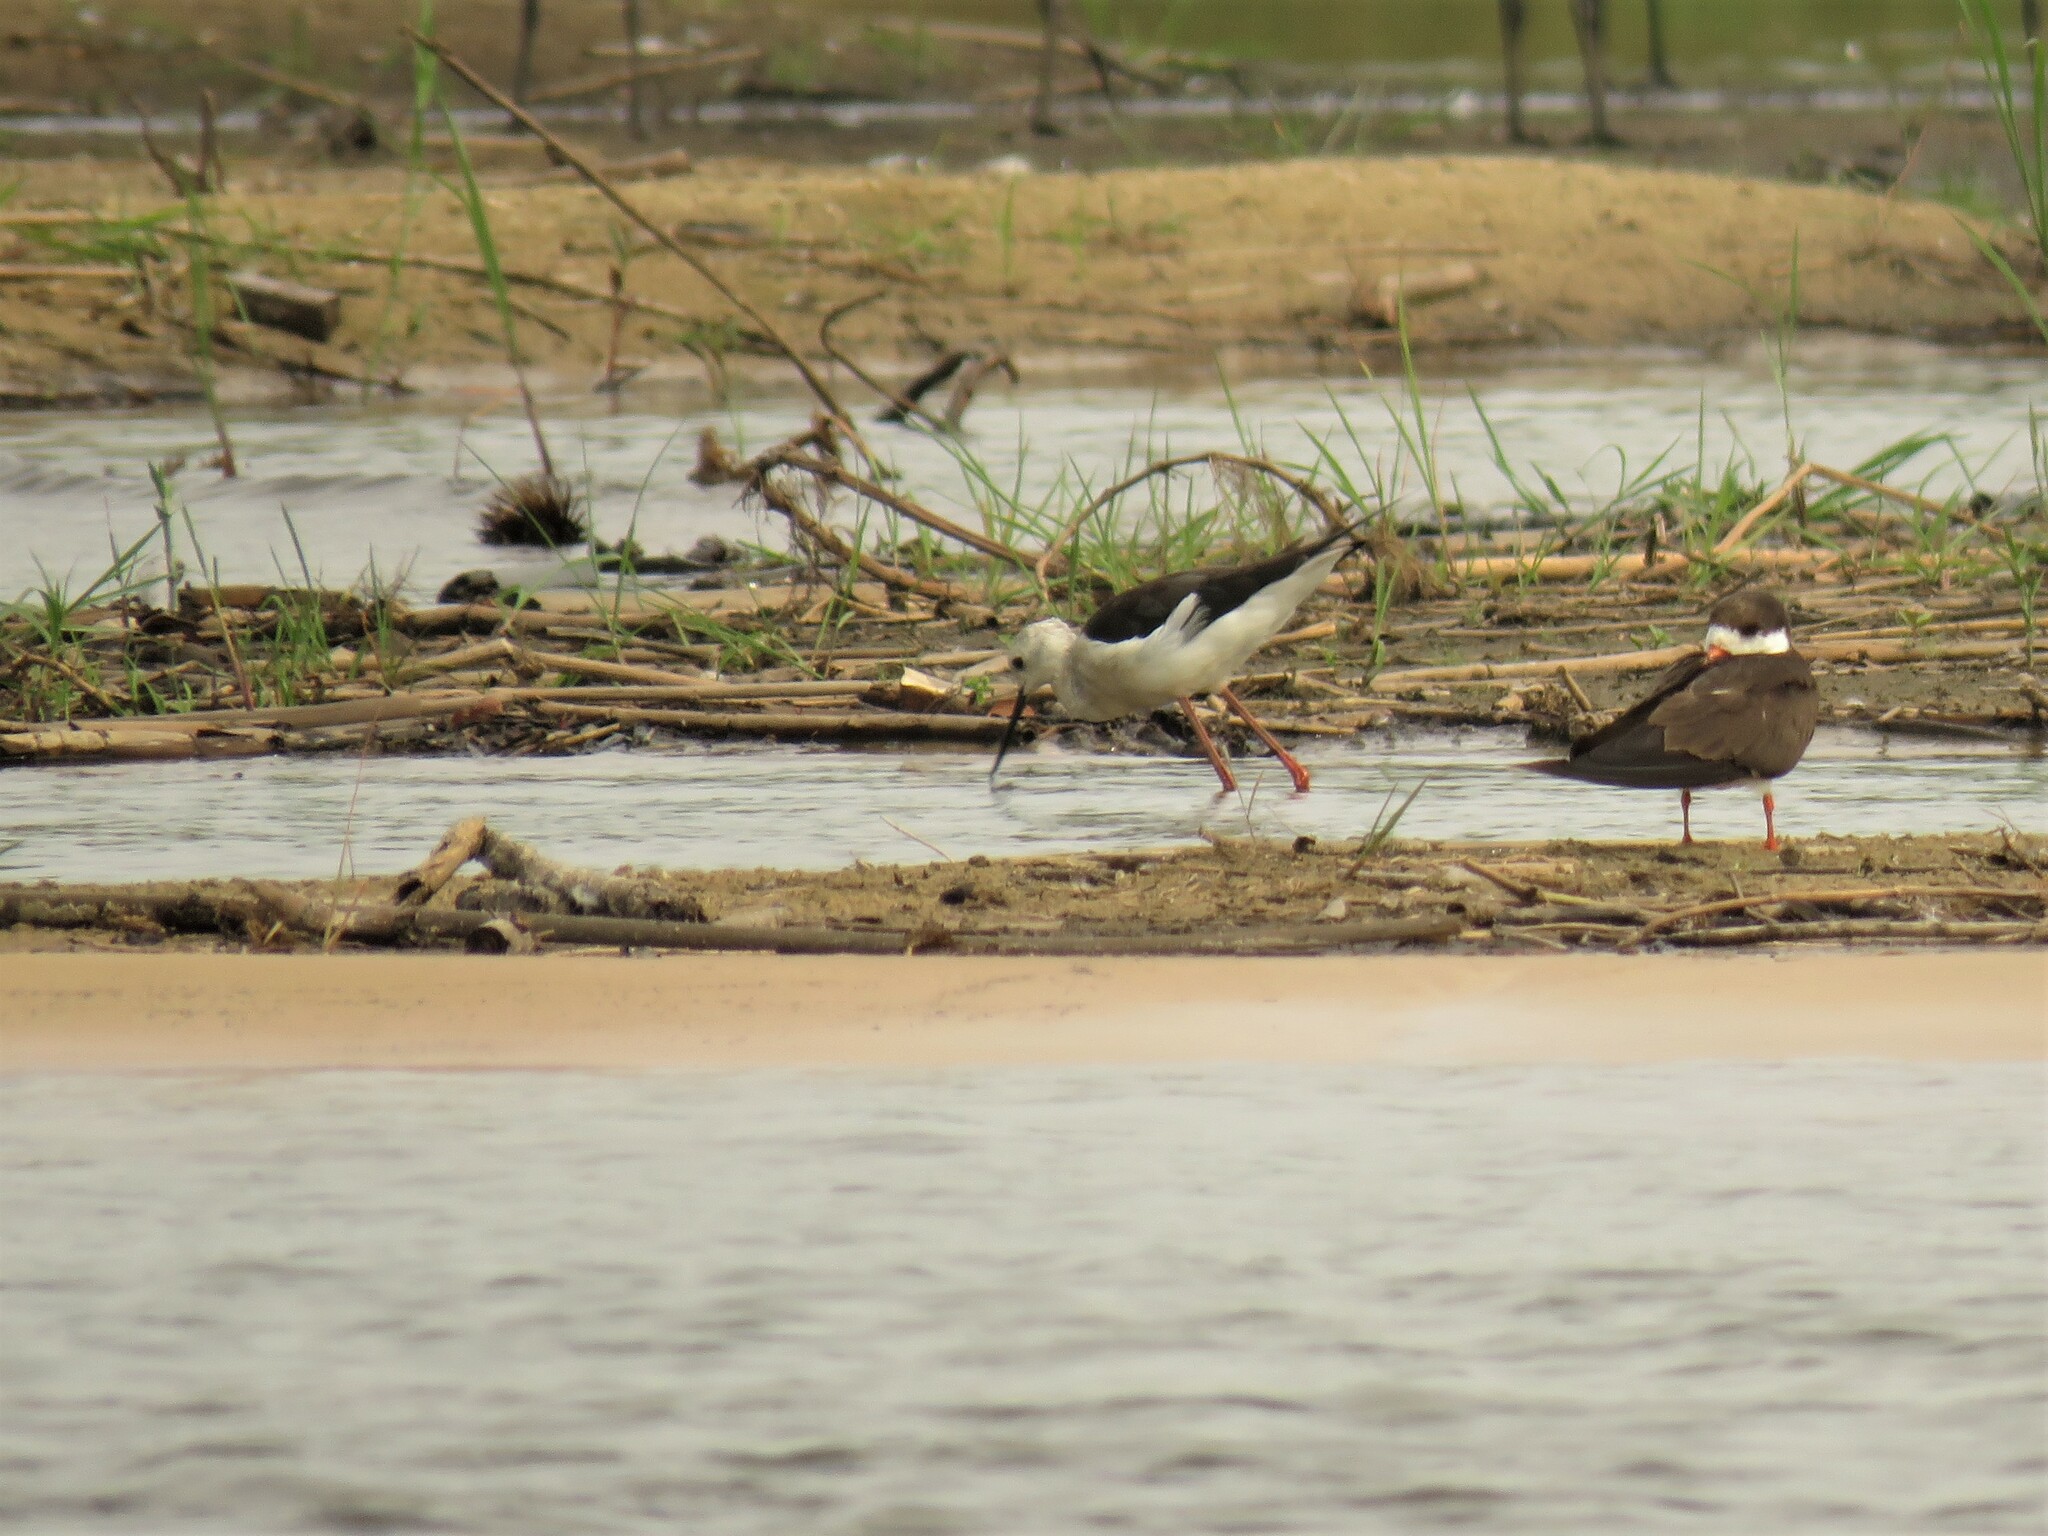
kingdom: Animalia
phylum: Chordata
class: Aves
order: Charadriiformes
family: Recurvirostridae
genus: Himantopus
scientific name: Himantopus himantopus
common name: Black-winged stilt
